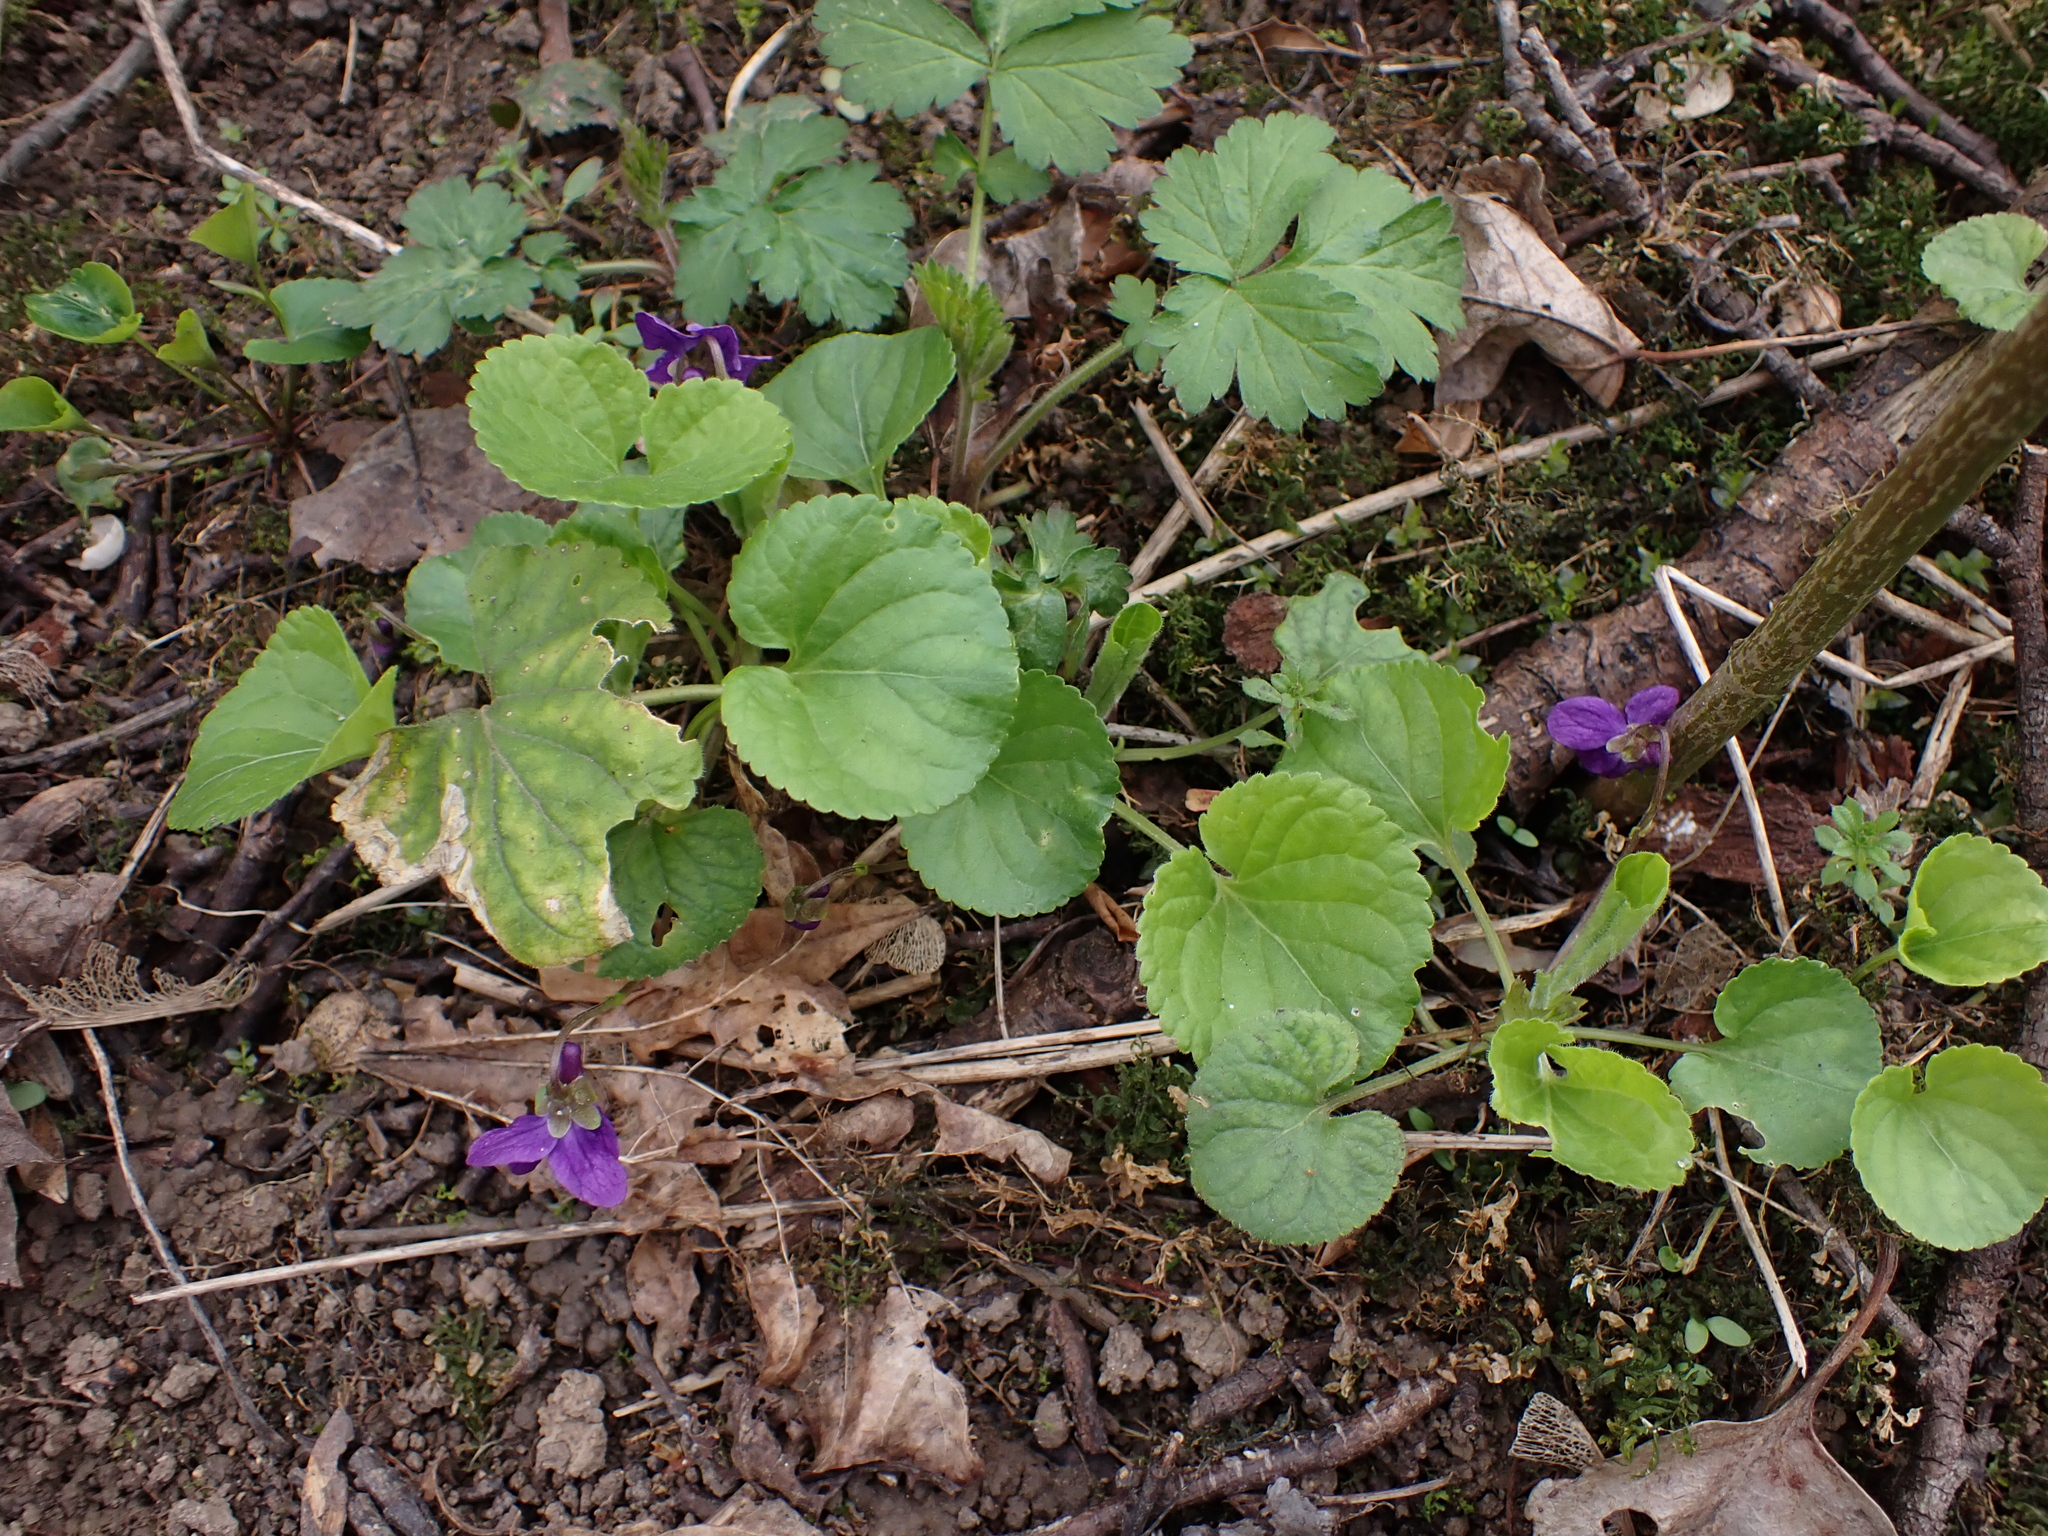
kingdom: Plantae
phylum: Tracheophyta
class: Magnoliopsida
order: Malpighiales
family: Violaceae
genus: Viola
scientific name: Viola odorata
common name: Sweet violet
